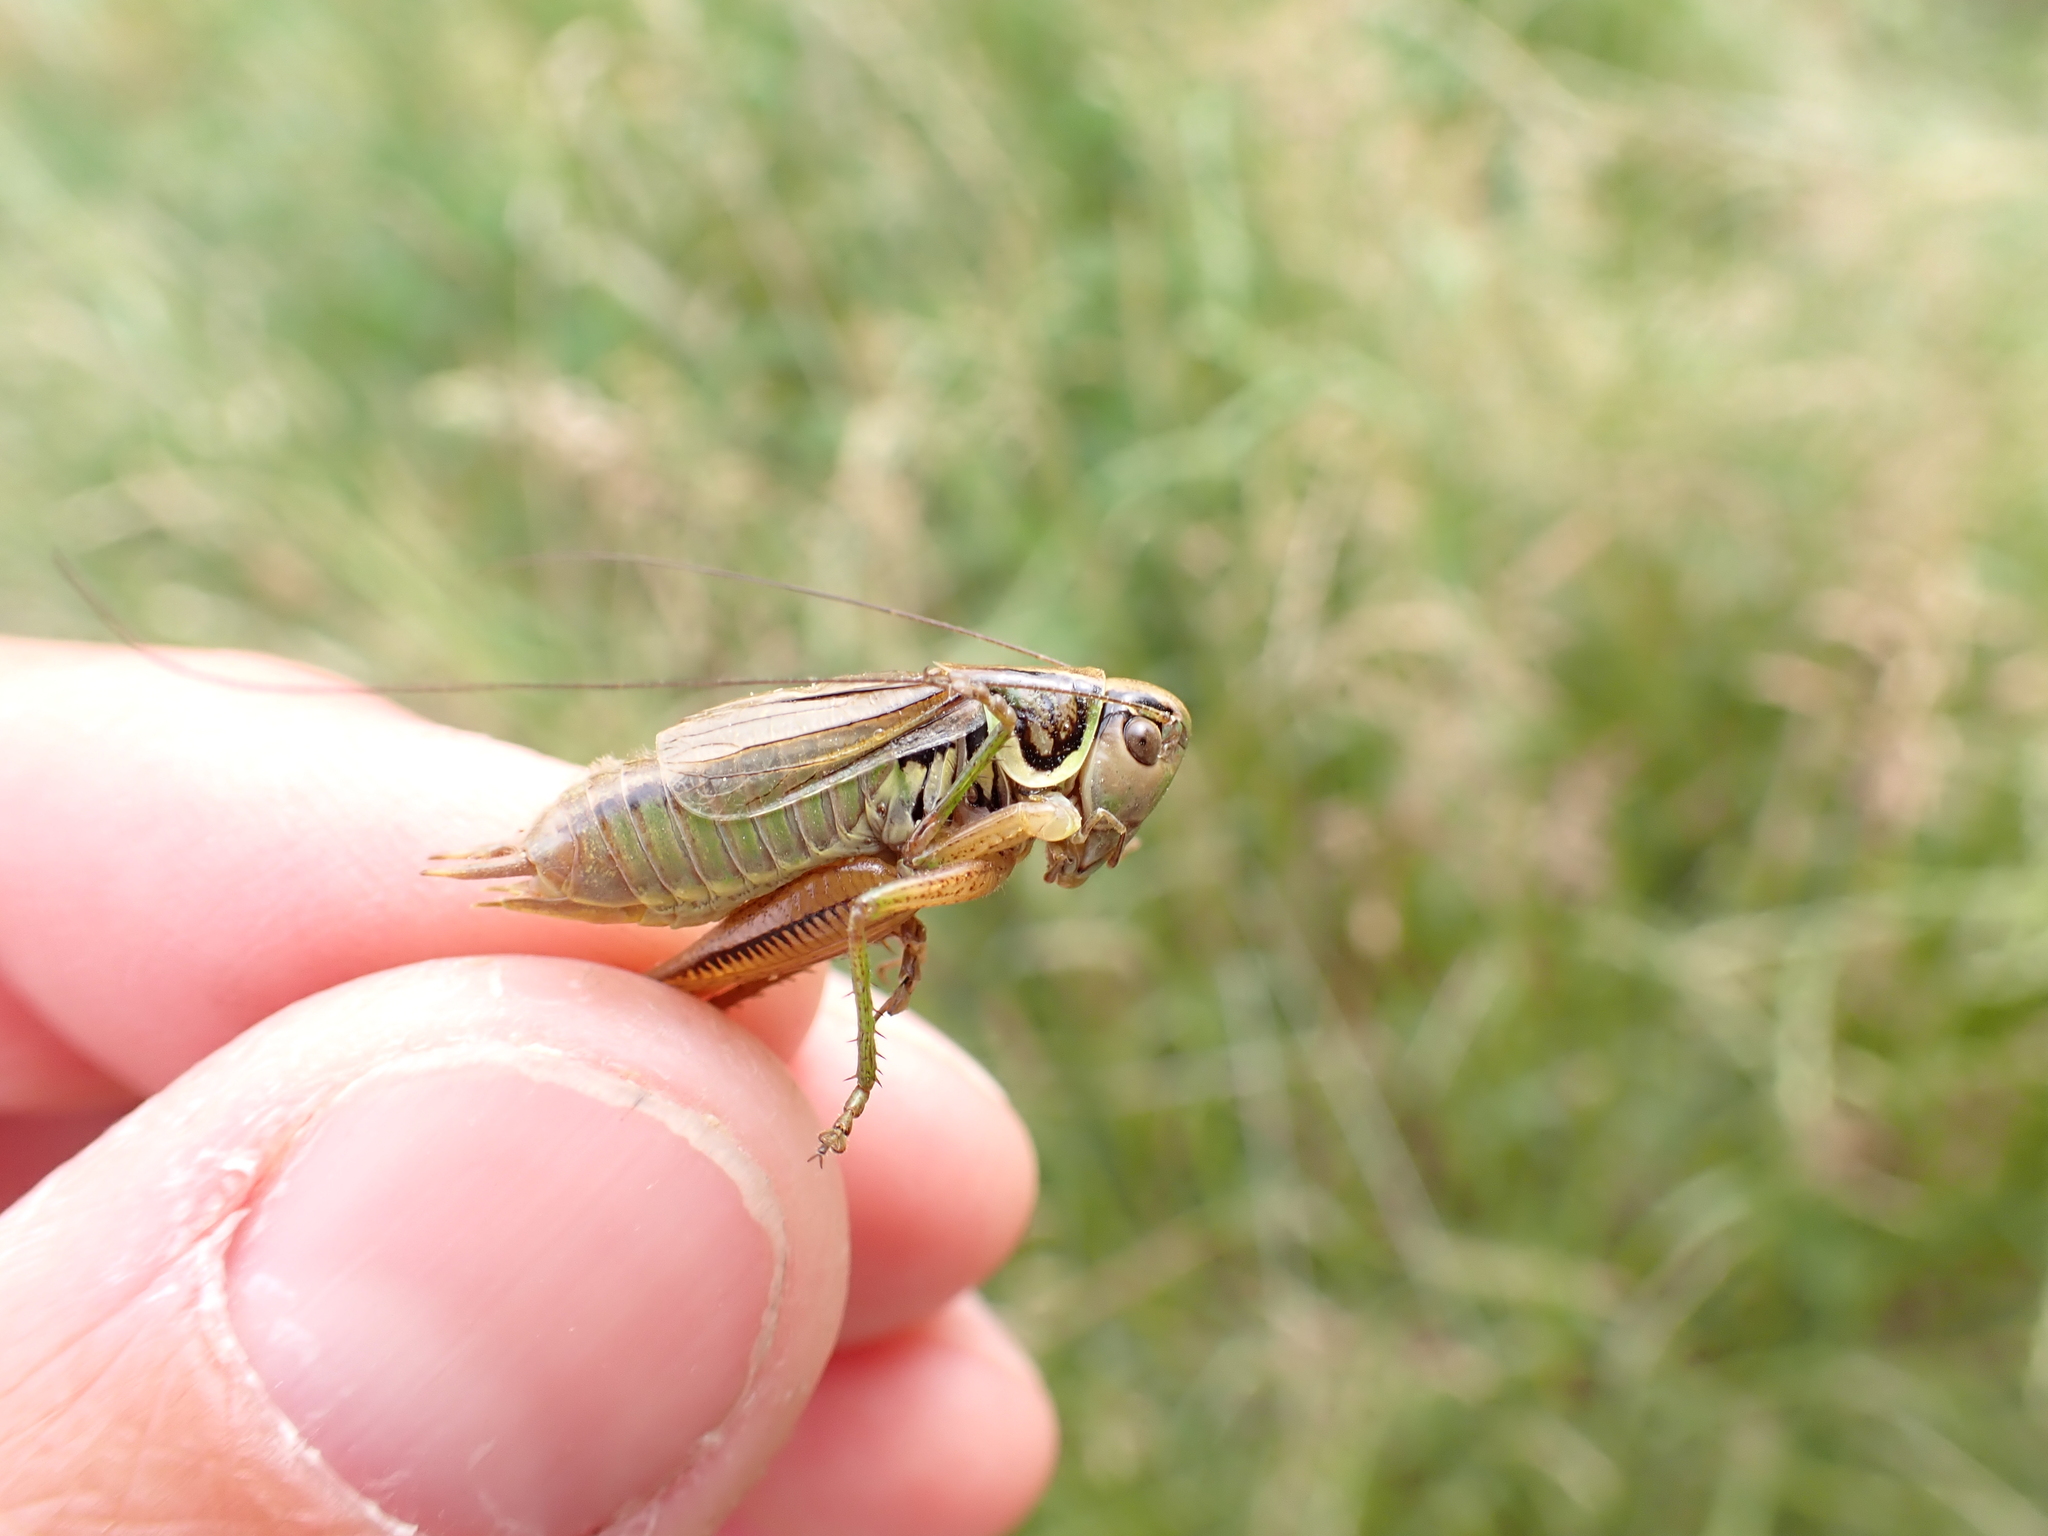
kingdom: Animalia
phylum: Arthropoda
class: Insecta
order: Orthoptera
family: Tettigoniidae
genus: Roeseliana
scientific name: Roeseliana roeselii
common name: Roesel's bush cricket
